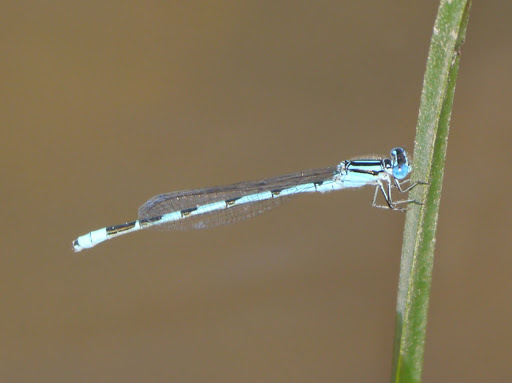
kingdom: Animalia
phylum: Arthropoda
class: Insecta
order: Odonata
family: Coenagrionidae
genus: Enallagma
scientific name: Enallagma durum
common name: Big bluet
